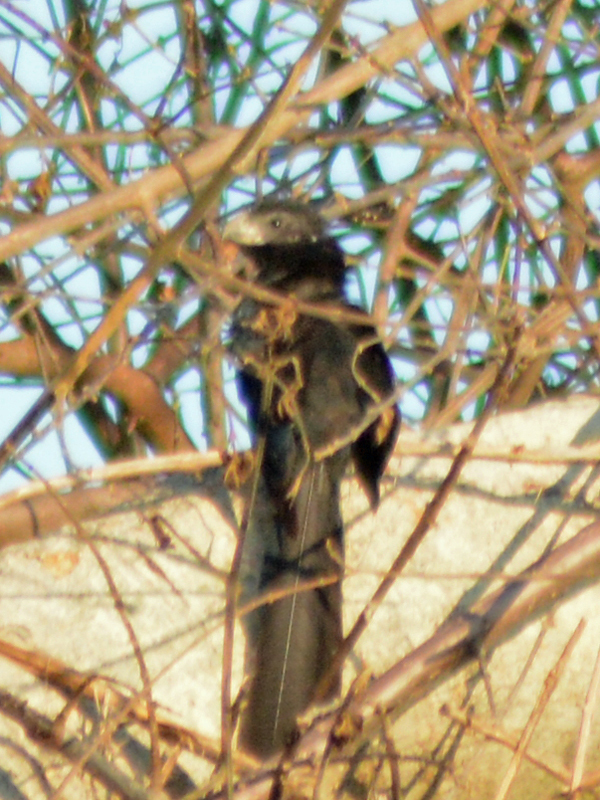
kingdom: Animalia
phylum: Chordata
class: Aves
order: Cuculiformes
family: Cuculidae
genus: Crotophaga
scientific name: Crotophaga sulcirostris
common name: Groove-billed ani
